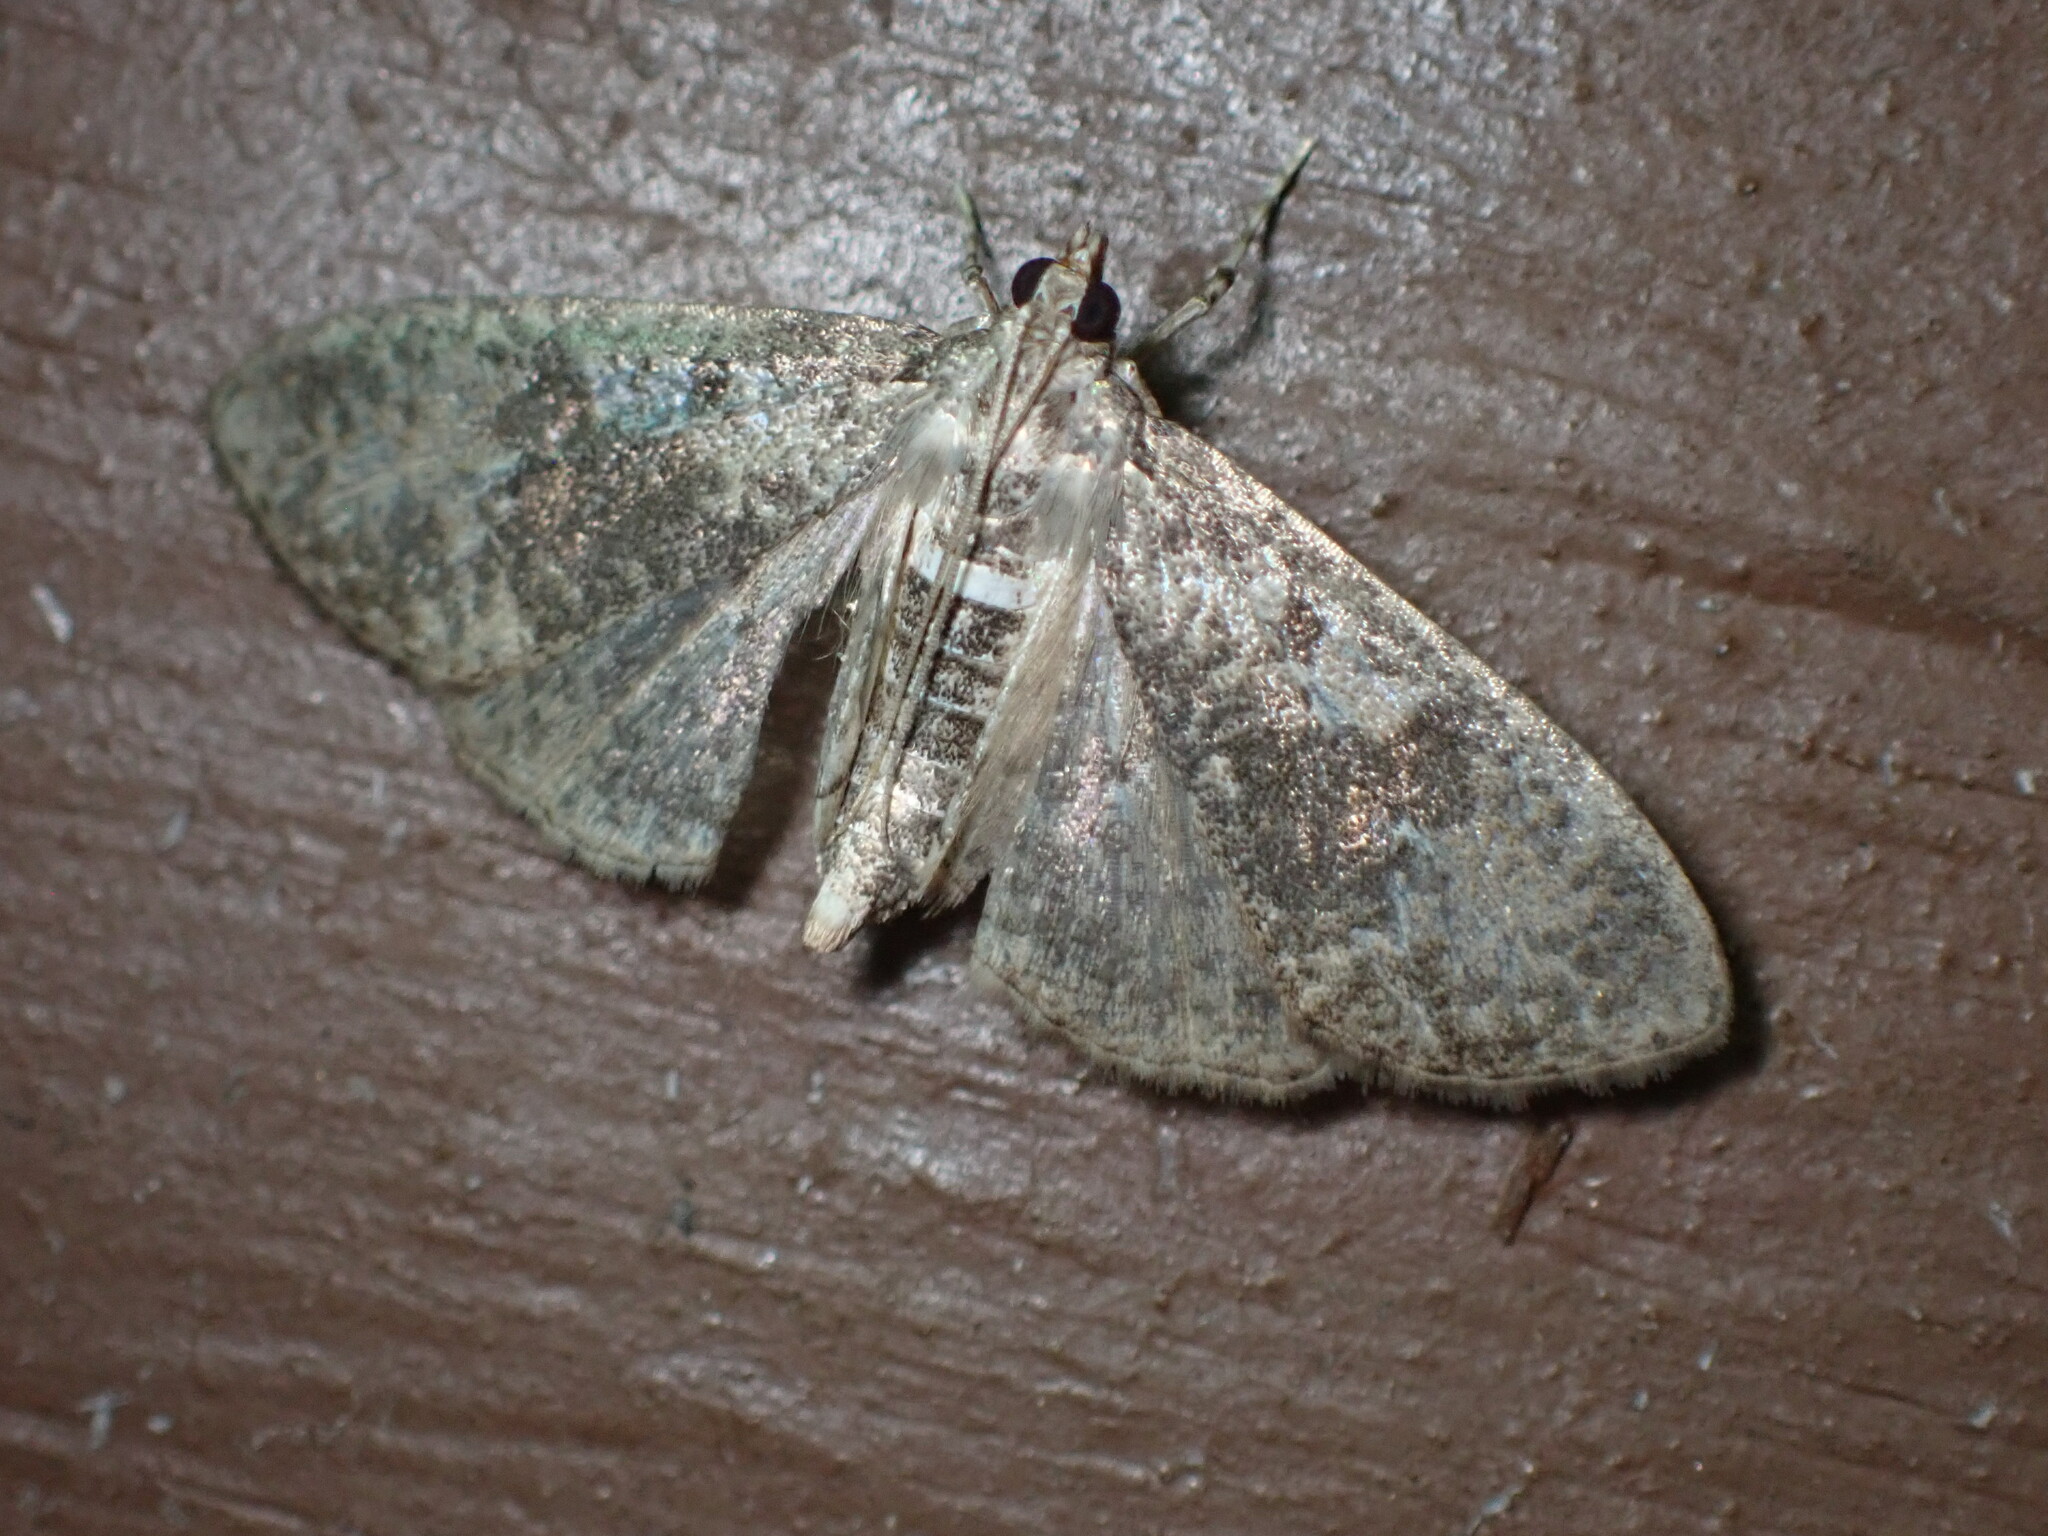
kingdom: Animalia
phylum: Arthropoda
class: Insecta
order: Lepidoptera
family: Crambidae
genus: Palpita
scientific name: Palpita magniferalis
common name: Splendid palpita moth
